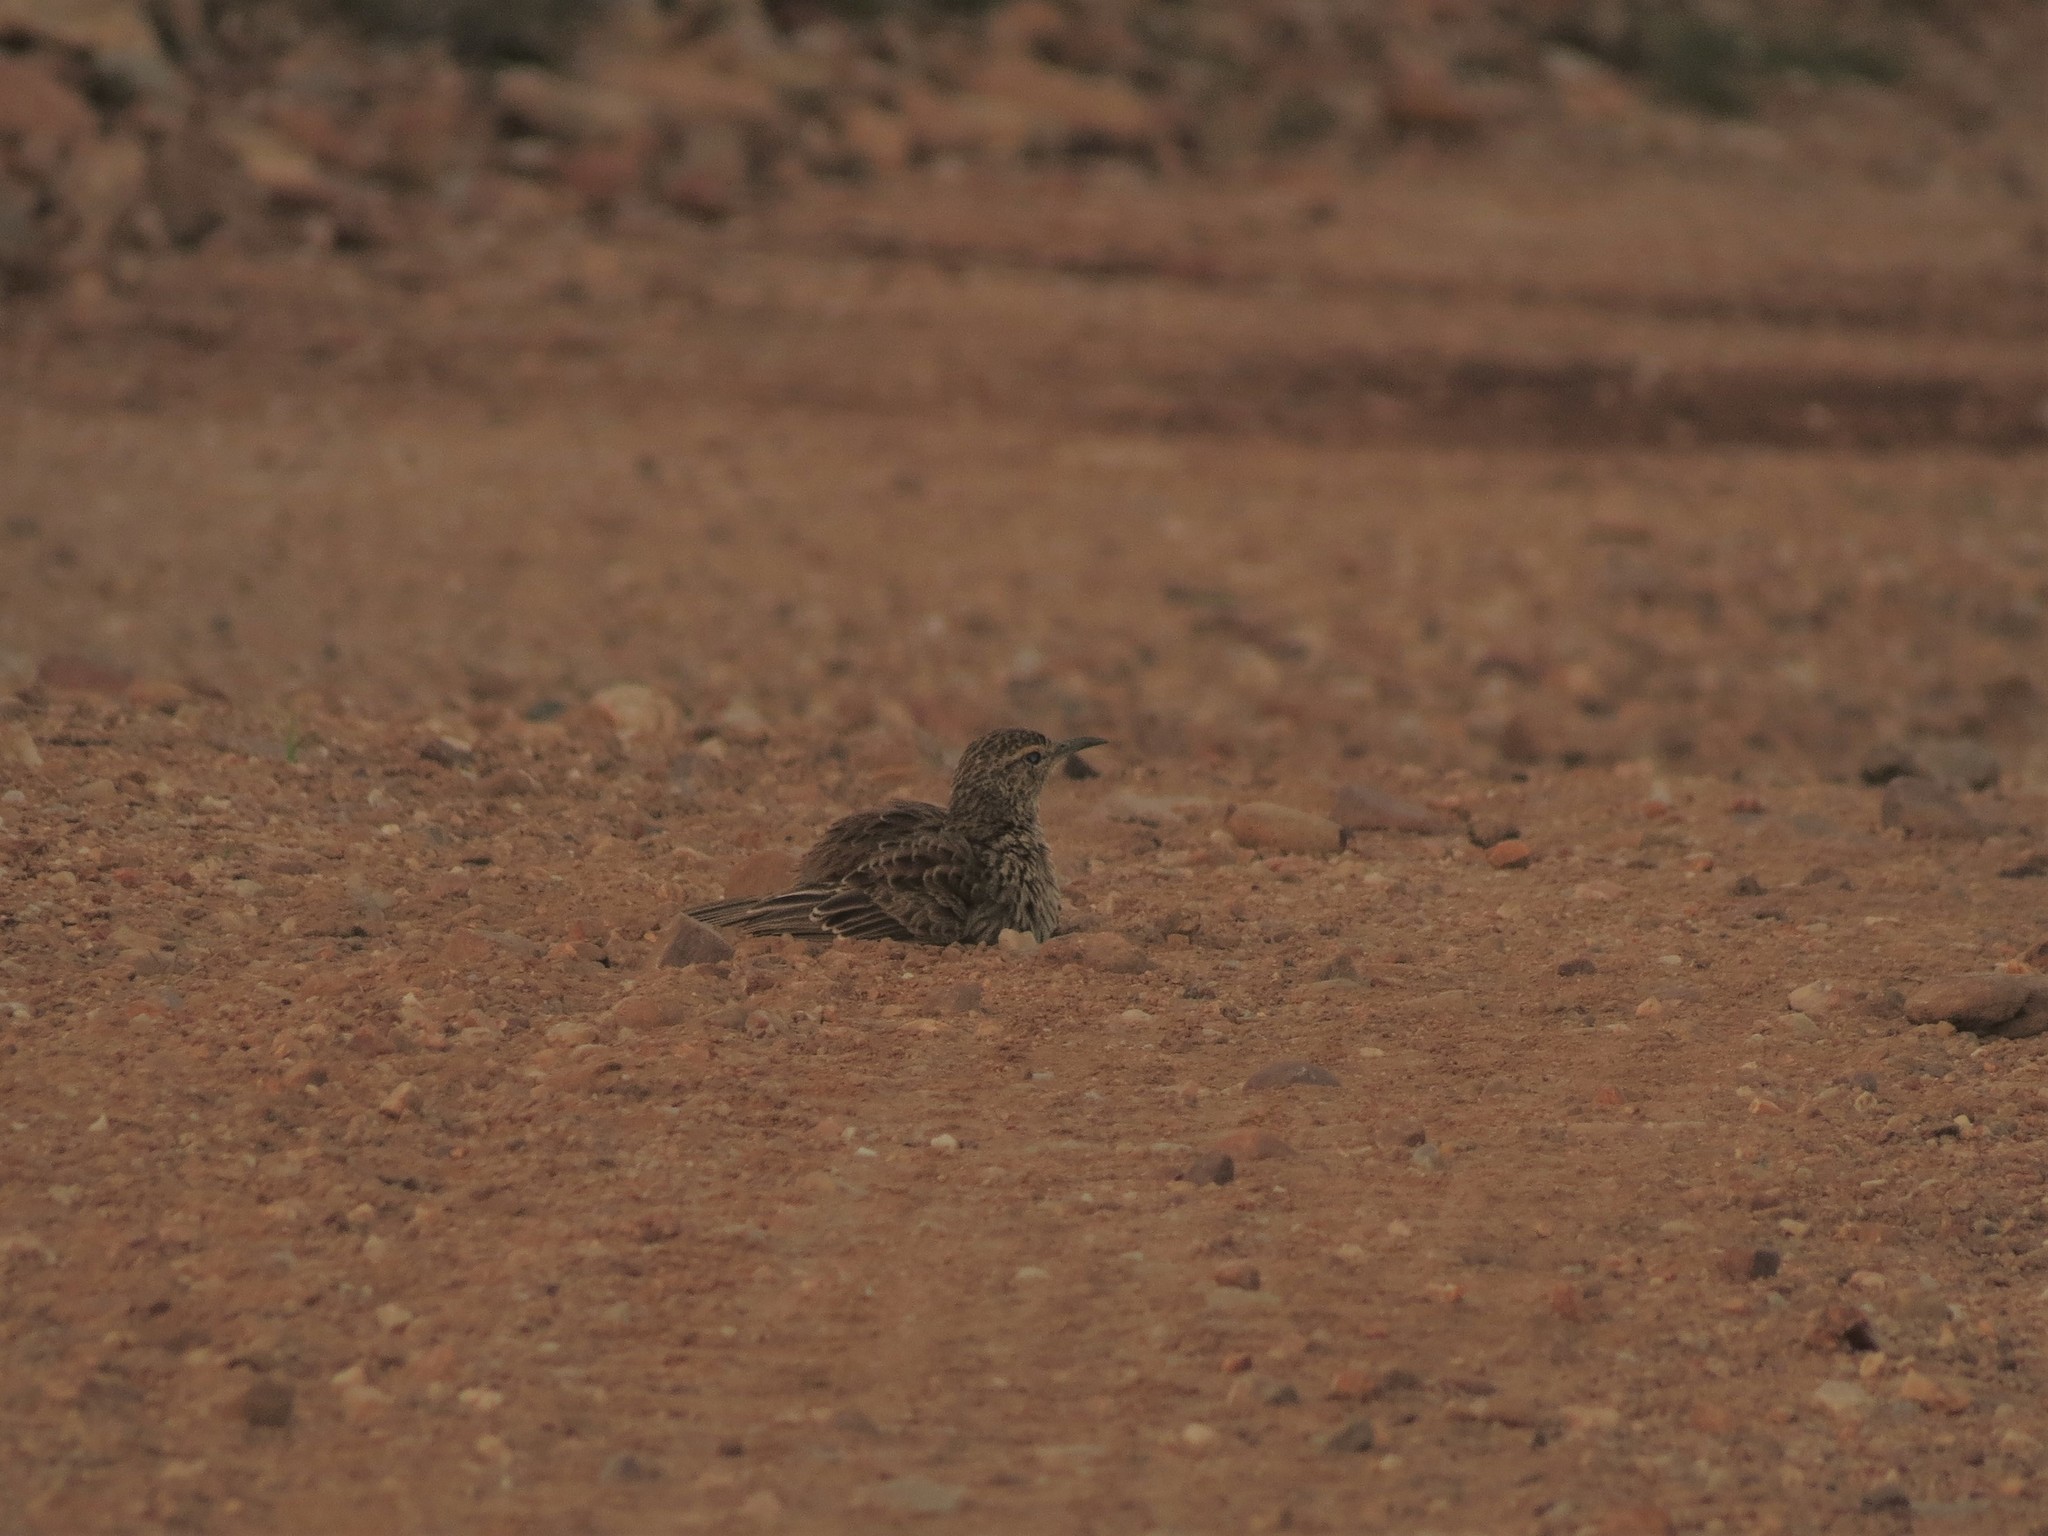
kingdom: Animalia
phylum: Chordata
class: Aves
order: Passeriformes
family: Alaudidae
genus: Certhilauda
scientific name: Certhilauda curvirostris
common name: Cape long-billed lark
